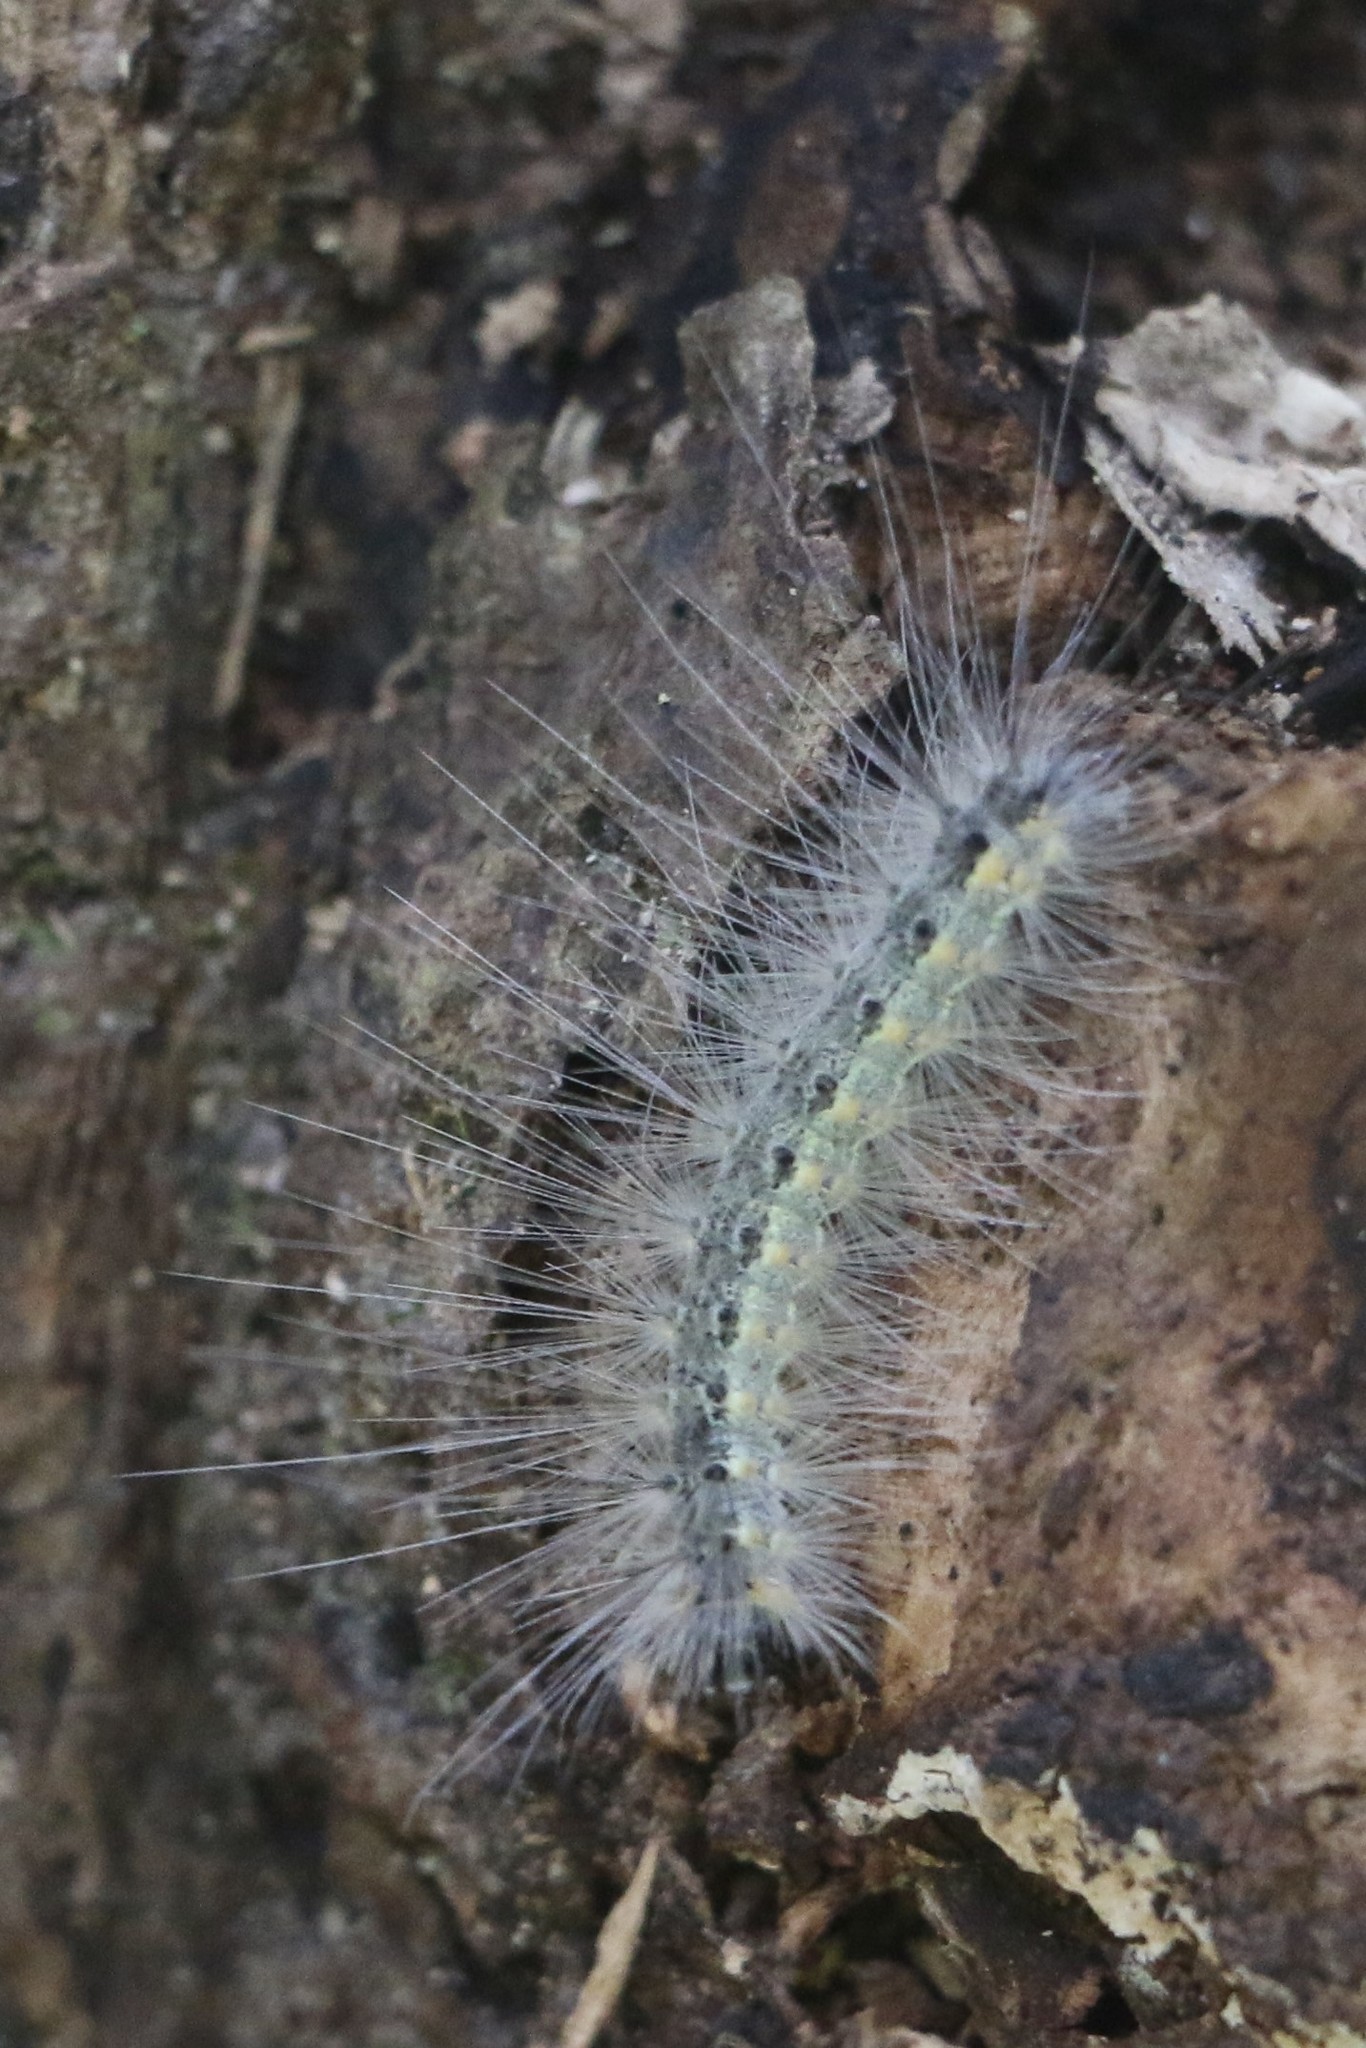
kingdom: Animalia
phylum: Arthropoda
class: Insecta
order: Lepidoptera
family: Erebidae
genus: Hyphantria
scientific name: Hyphantria cunea
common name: American white moth
